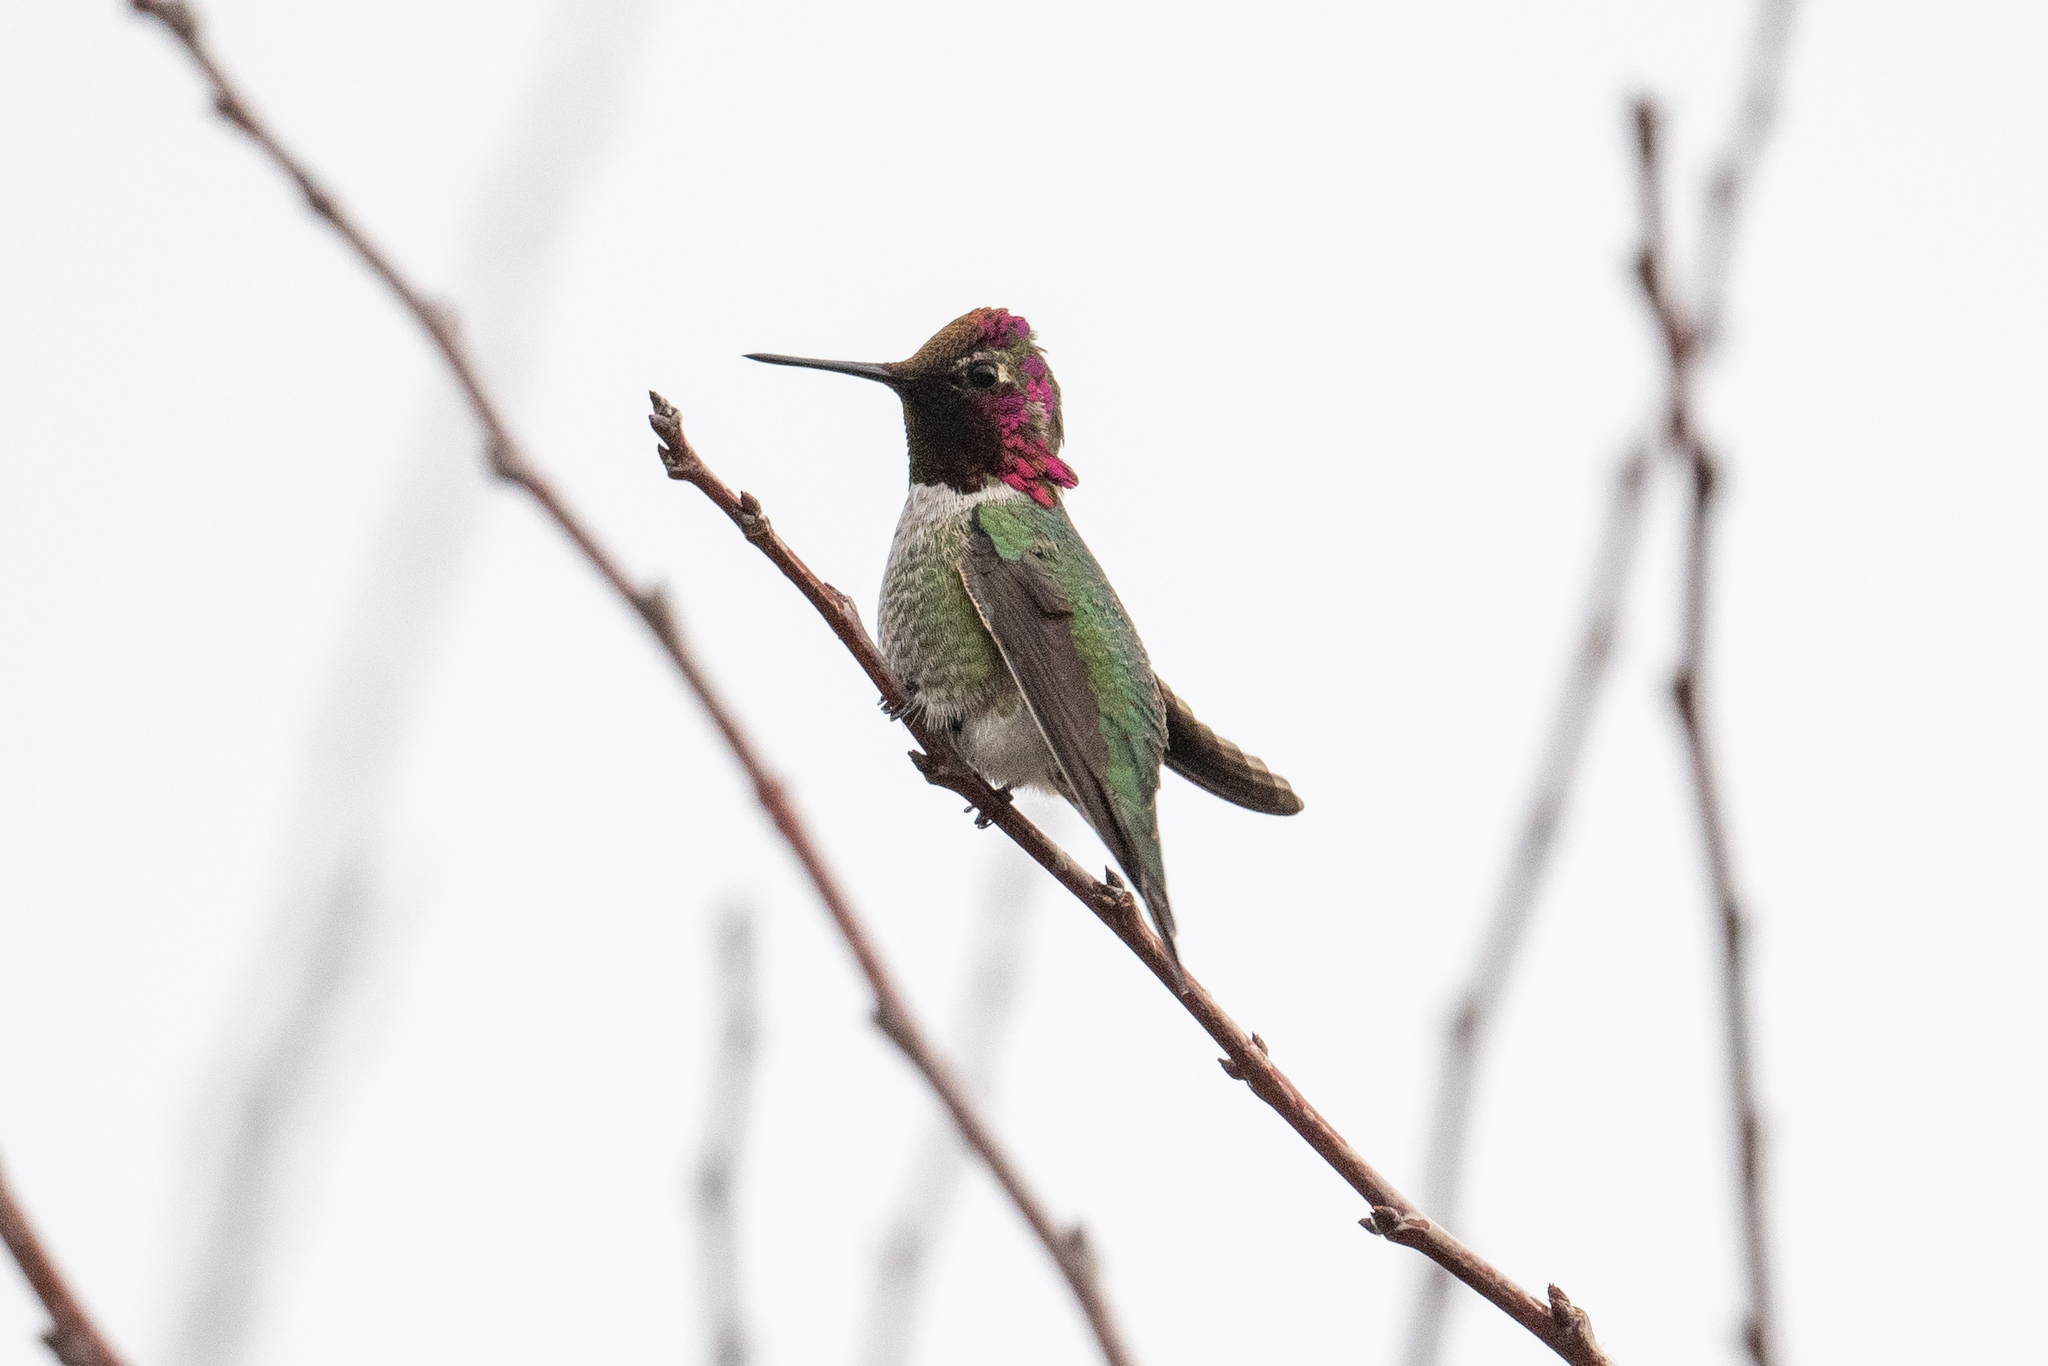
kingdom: Animalia
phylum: Chordata
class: Aves
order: Apodiformes
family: Trochilidae
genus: Calypte
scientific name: Calypte anna
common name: Anna's hummingbird
